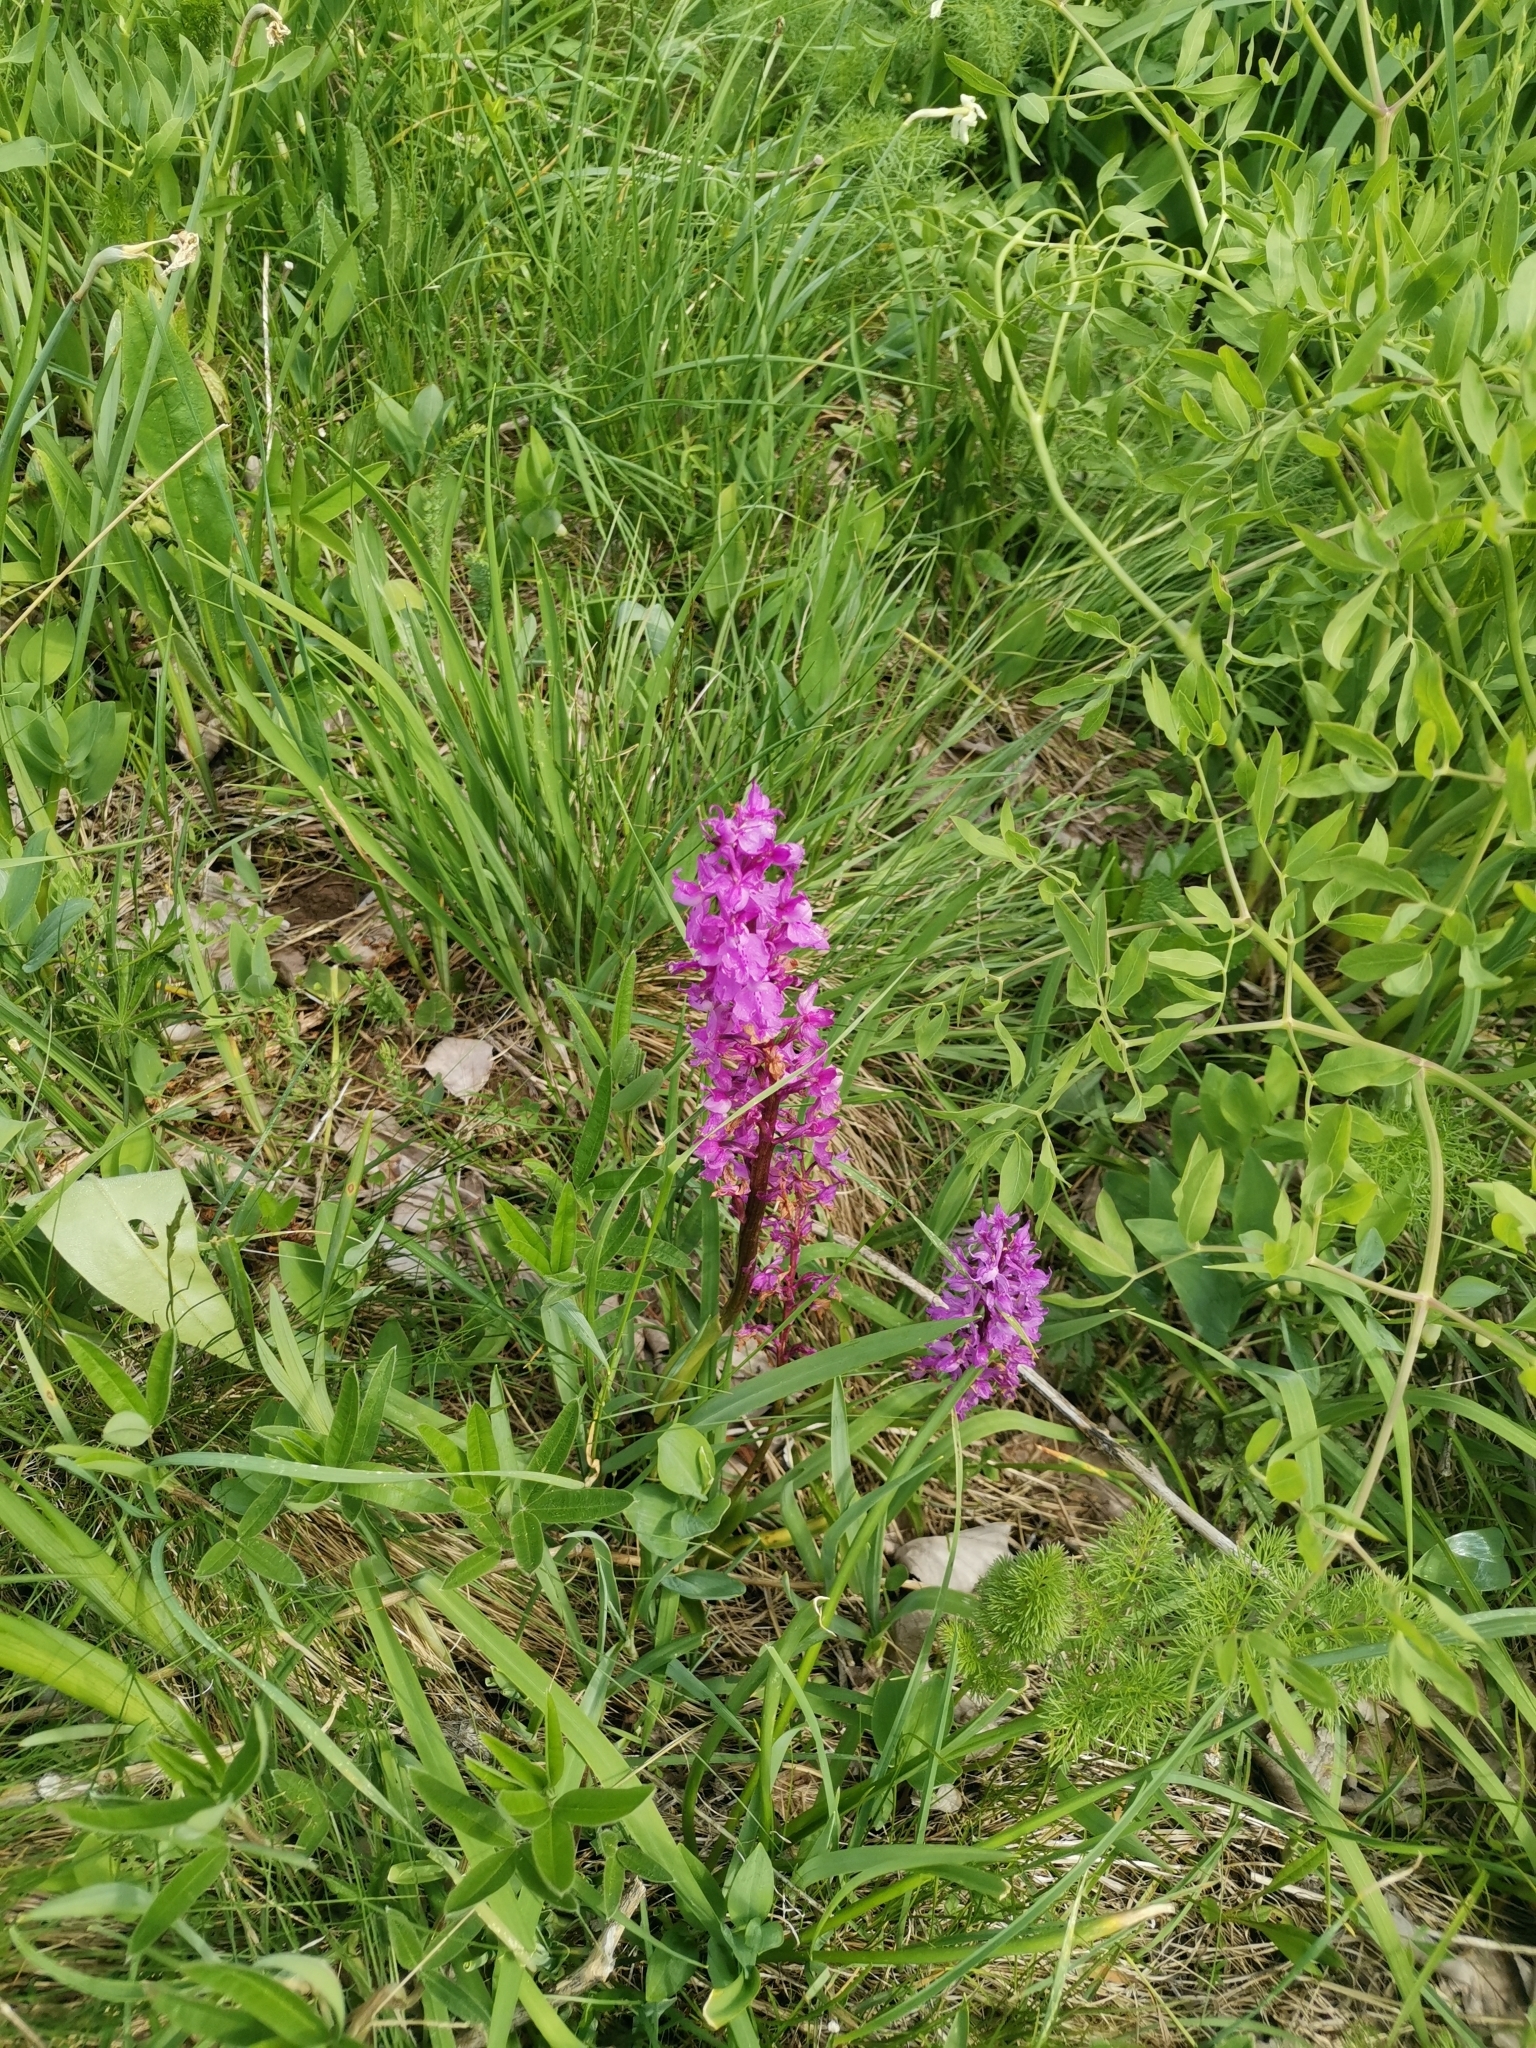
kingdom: Plantae
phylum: Tracheophyta
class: Liliopsida
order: Asparagales
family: Orchidaceae
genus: Orchis
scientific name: Orchis mascula
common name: Early-purple orchid
